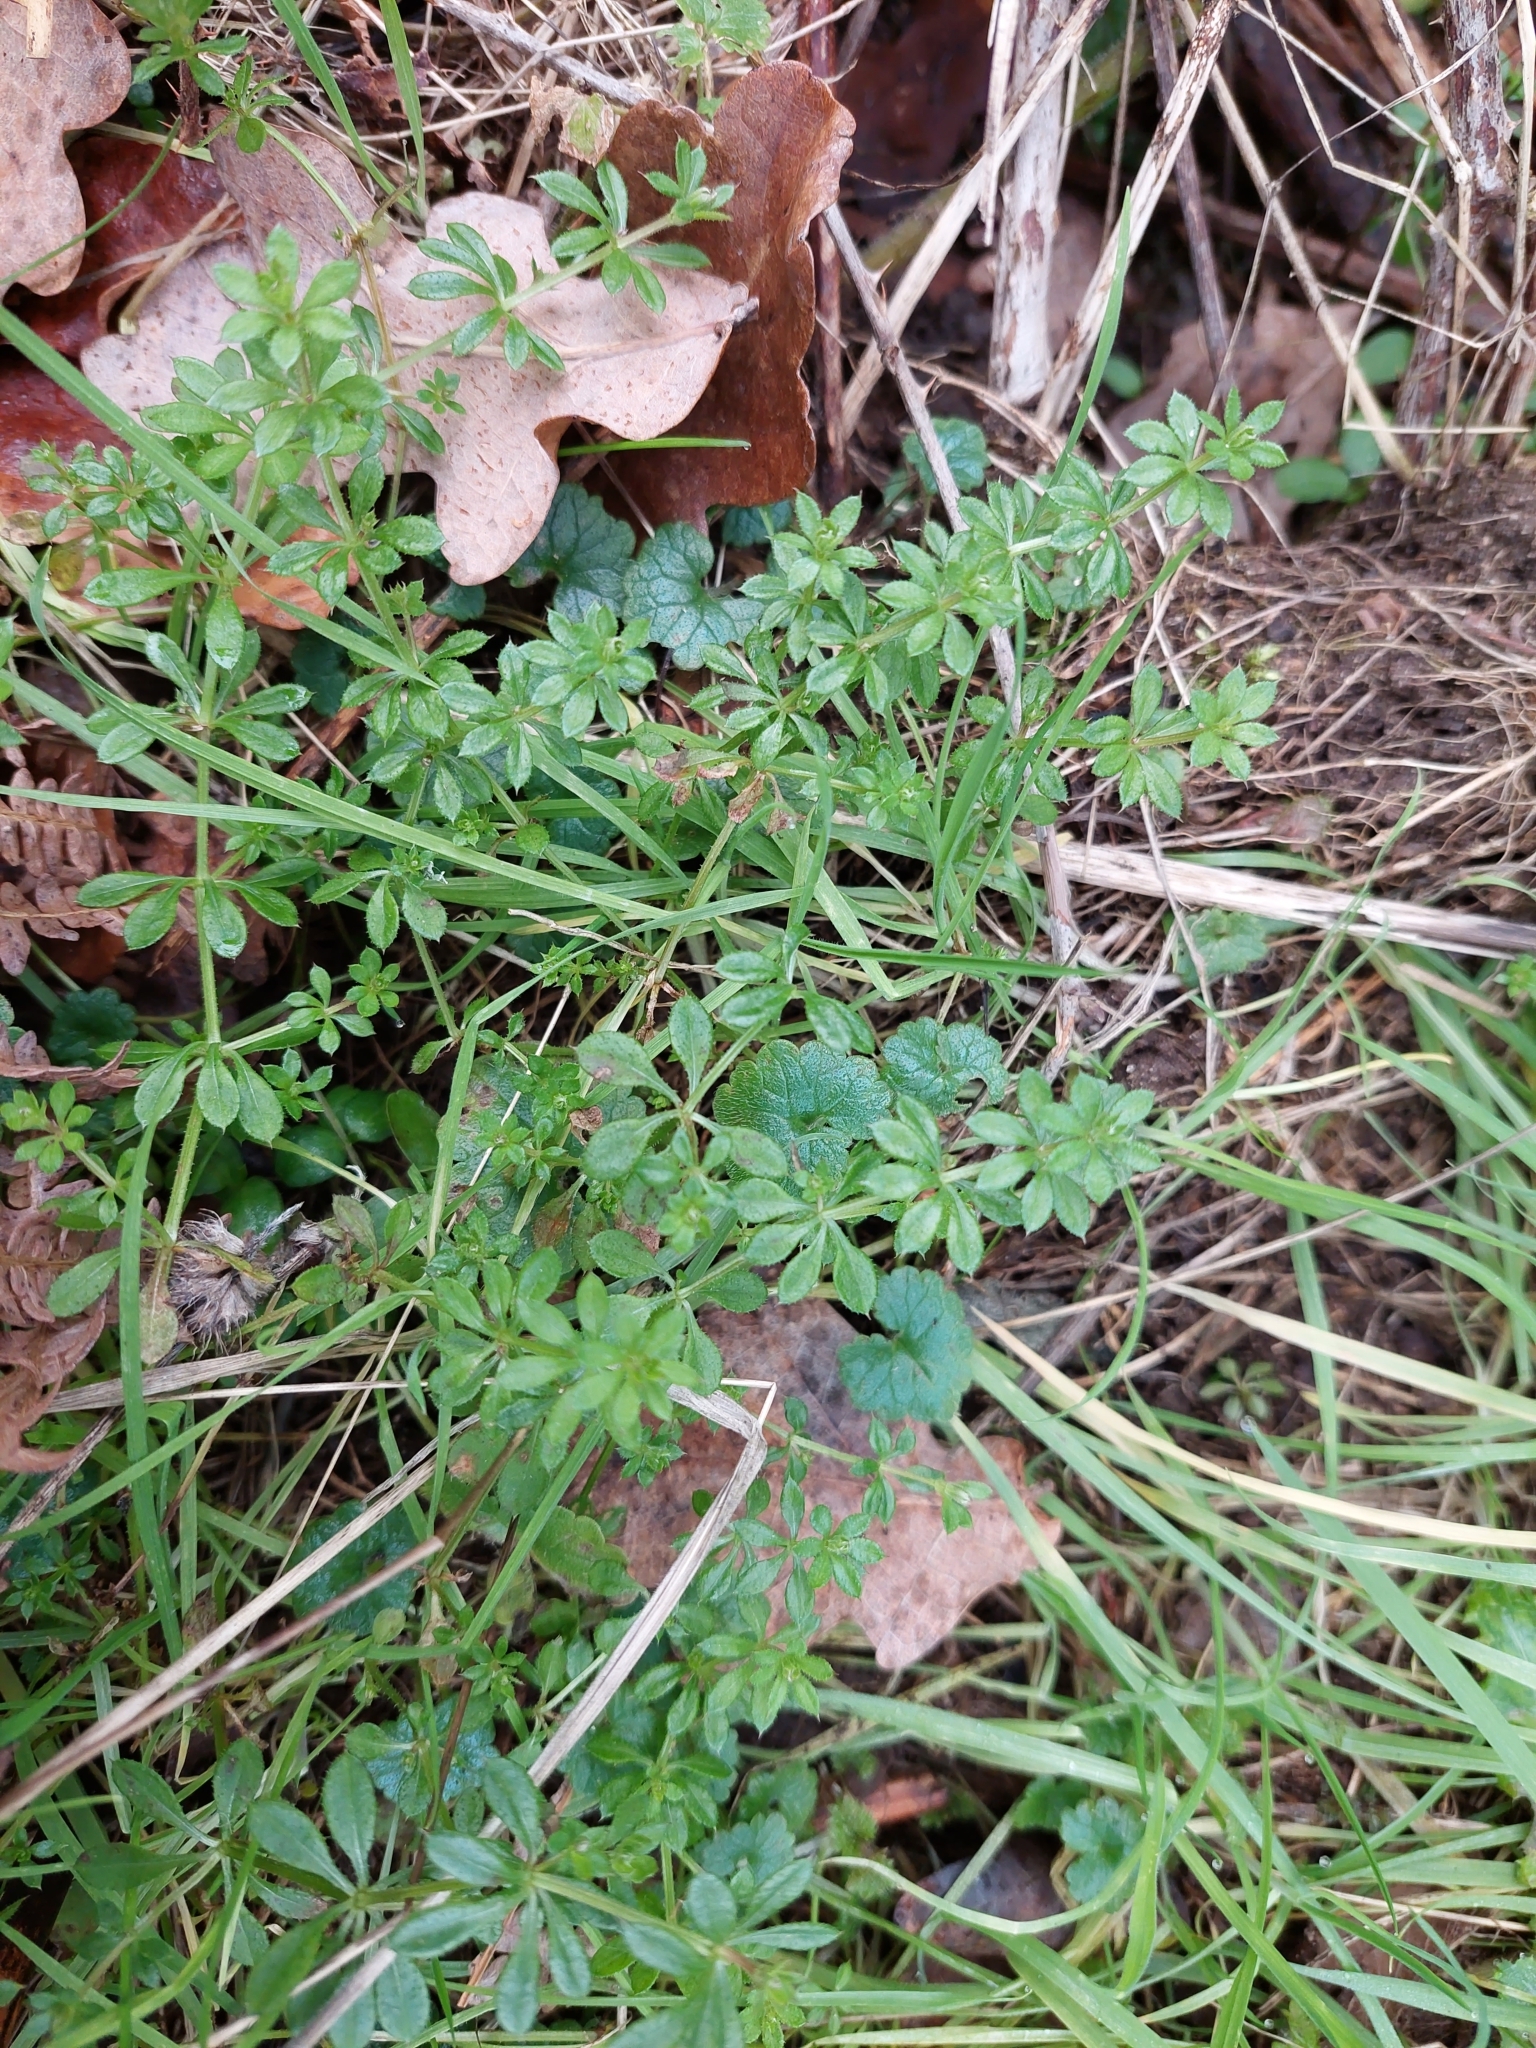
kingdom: Plantae
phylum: Tracheophyta
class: Magnoliopsida
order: Gentianales
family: Rubiaceae
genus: Galium
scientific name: Galium aparine
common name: Cleavers
